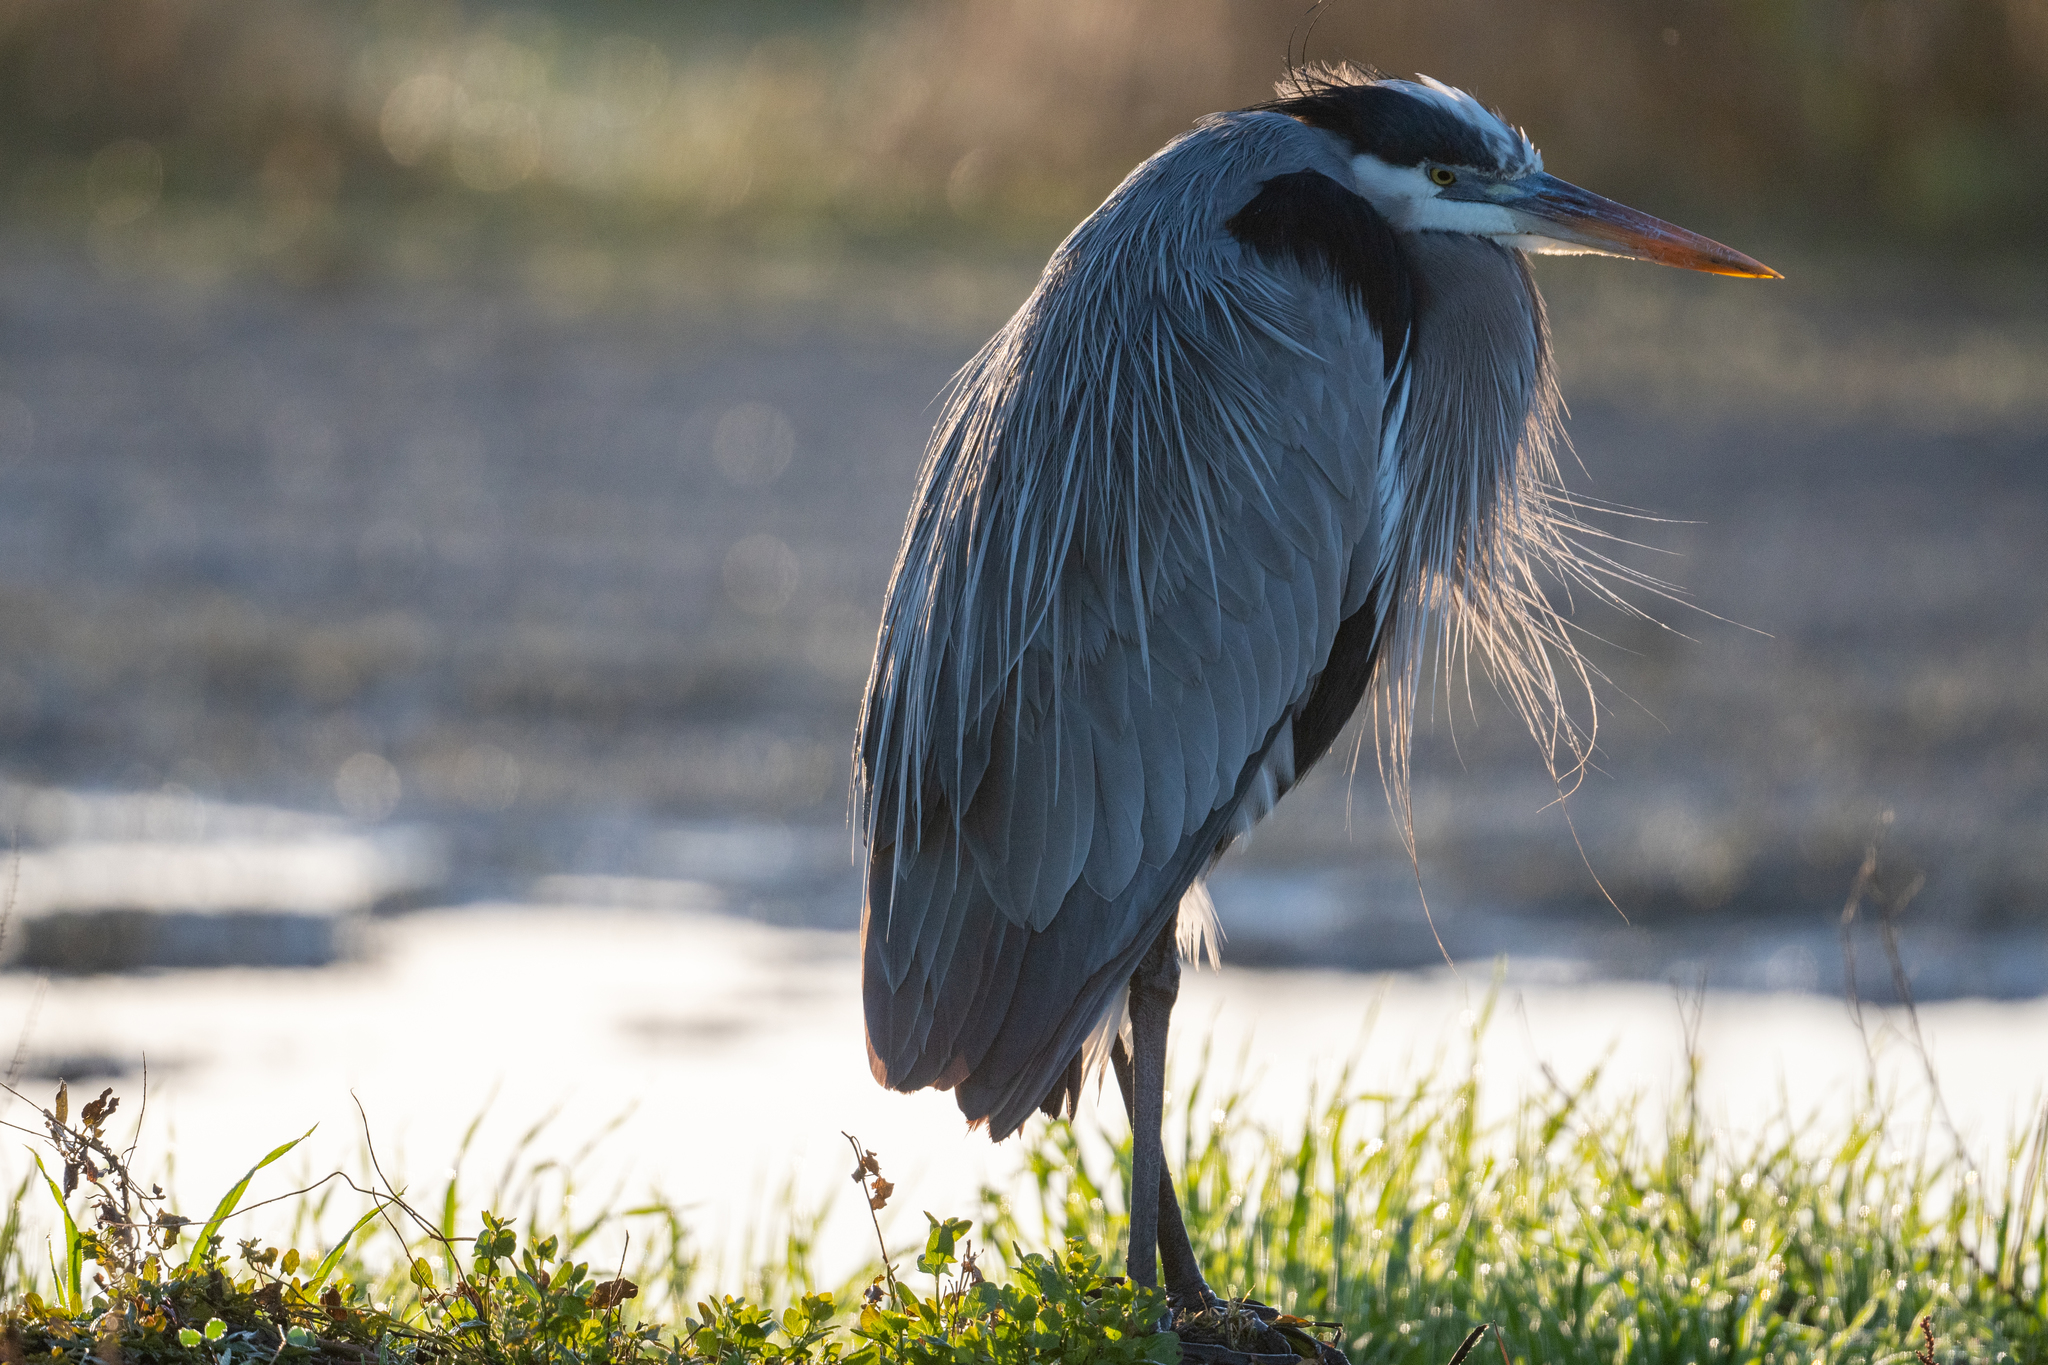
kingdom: Animalia
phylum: Chordata
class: Aves
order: Pelecaniformes
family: Ardeidae
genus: Ardea
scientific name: Ardea herodias
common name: Great blue heron
